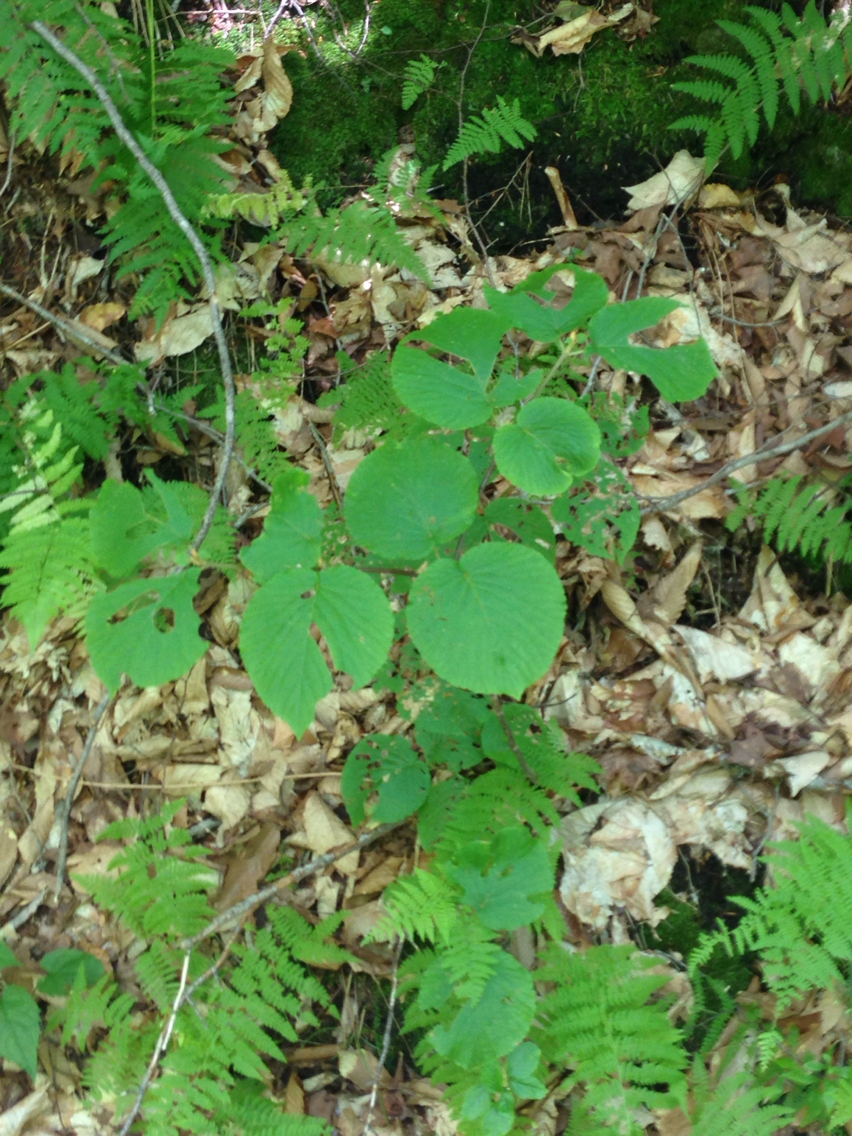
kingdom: Plantae
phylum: Tracheophyta
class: Magnoliopsida
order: Dipsacales
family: Viburnaceae
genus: Viburnum
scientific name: Viburnum lantanoides
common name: Hobblebush
